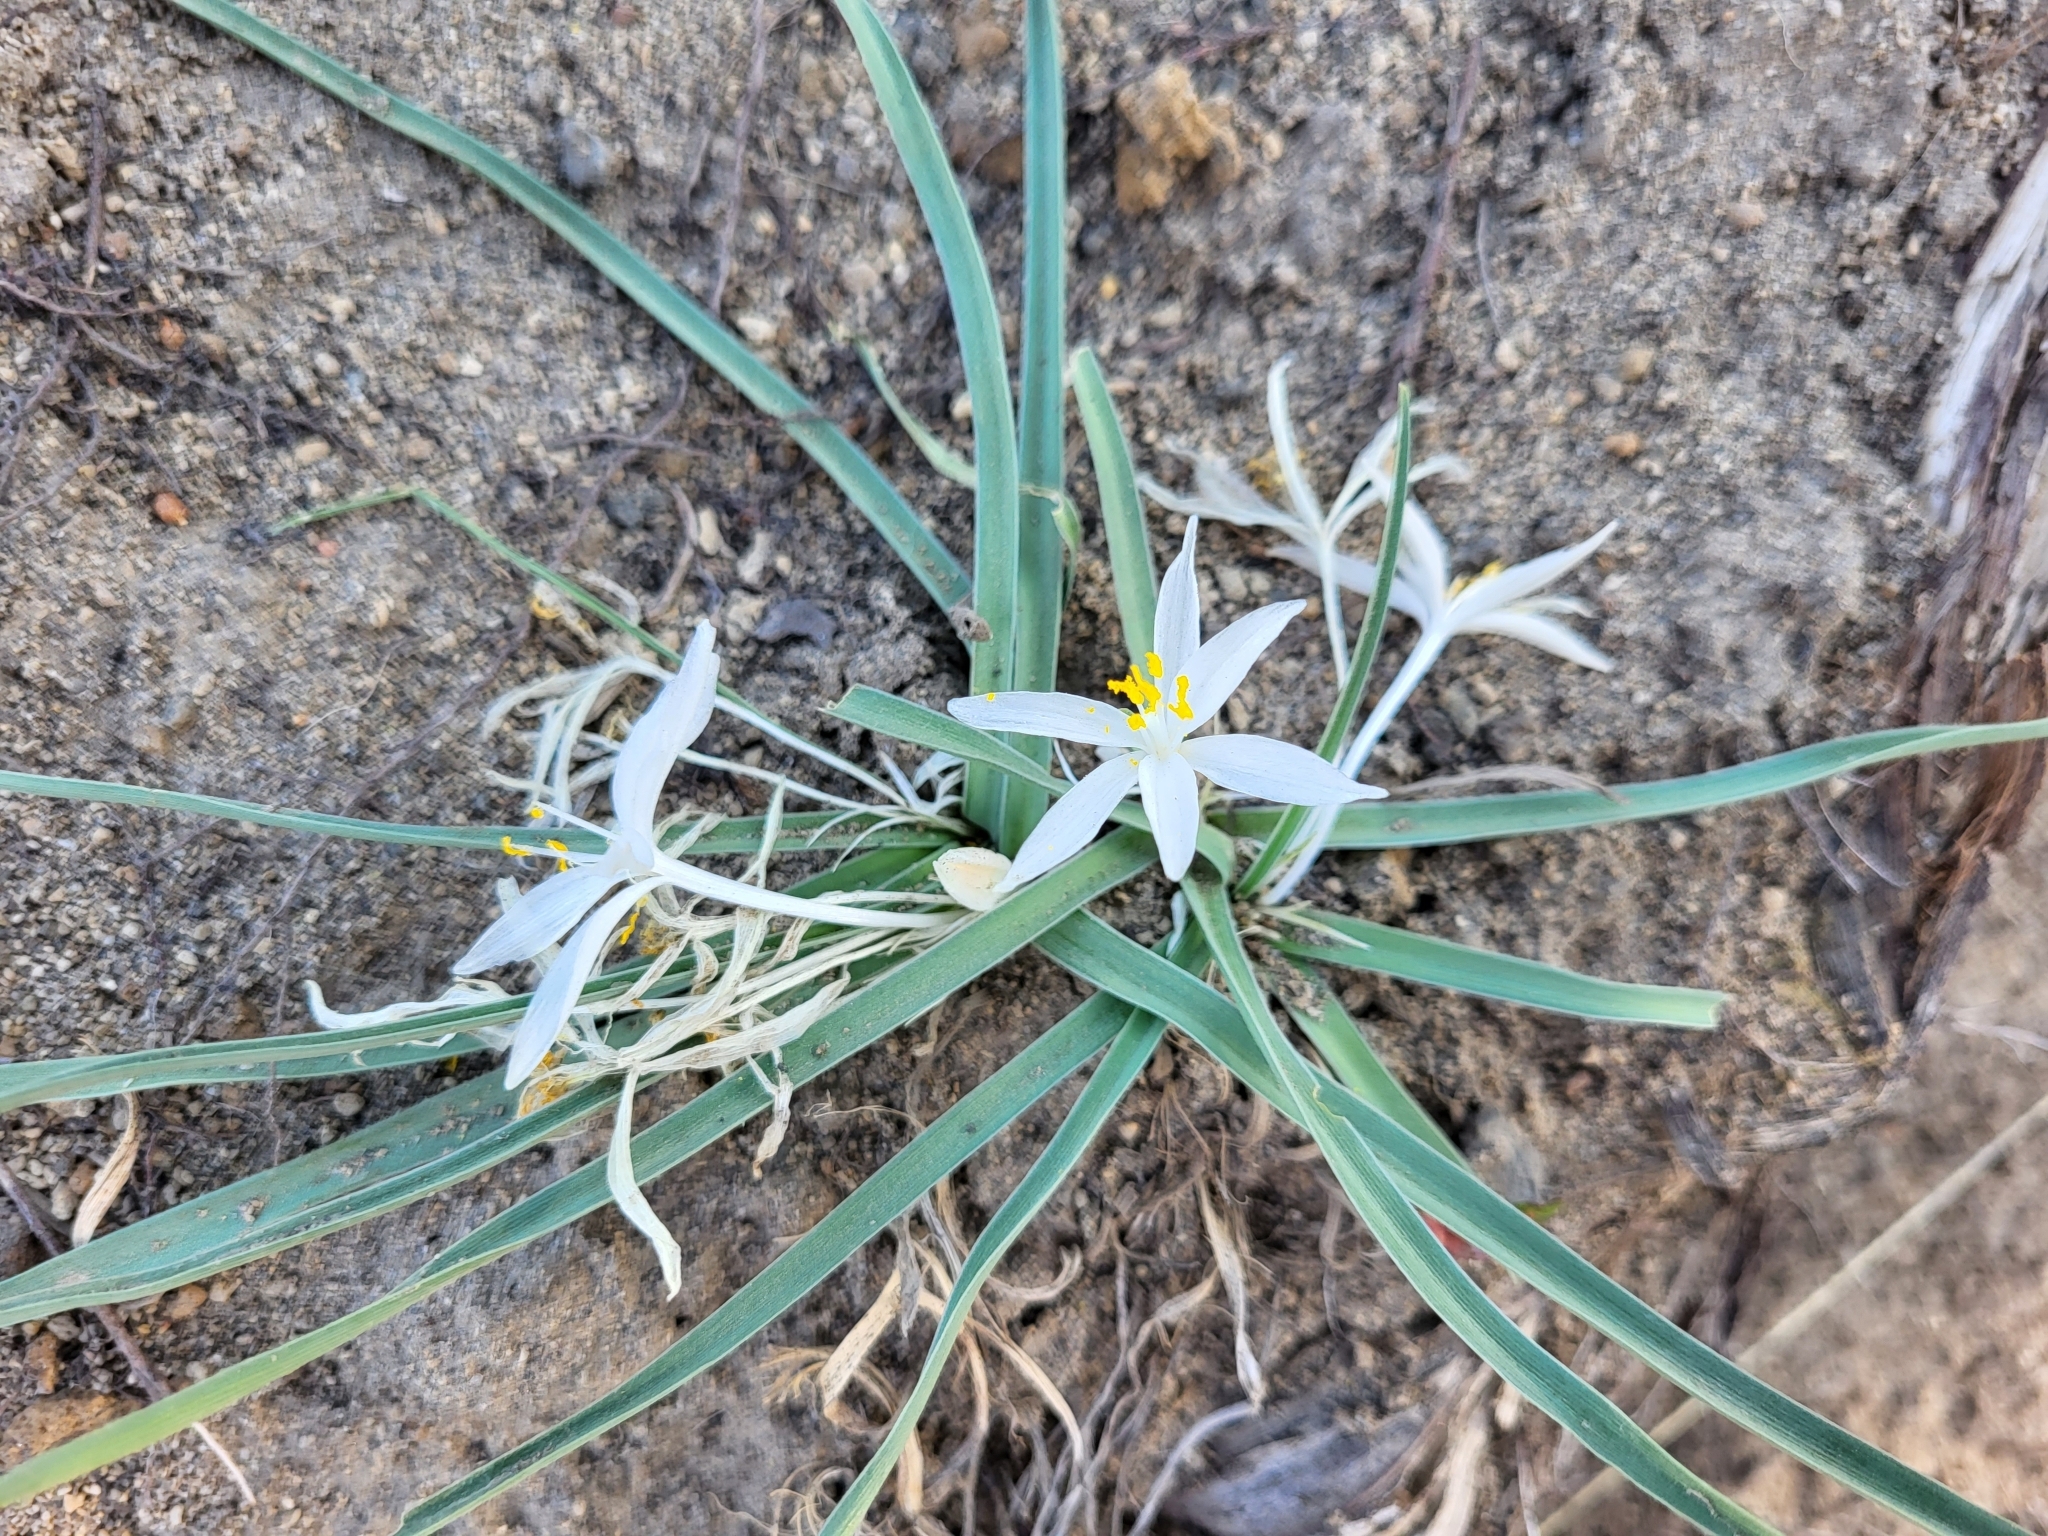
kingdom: Plantae
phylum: Tracheophyta
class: Liliopsida
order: Asparagales
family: Asparagaceae
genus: Leucocrinum
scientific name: Leucocrinum montanum
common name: Mountain-lily
